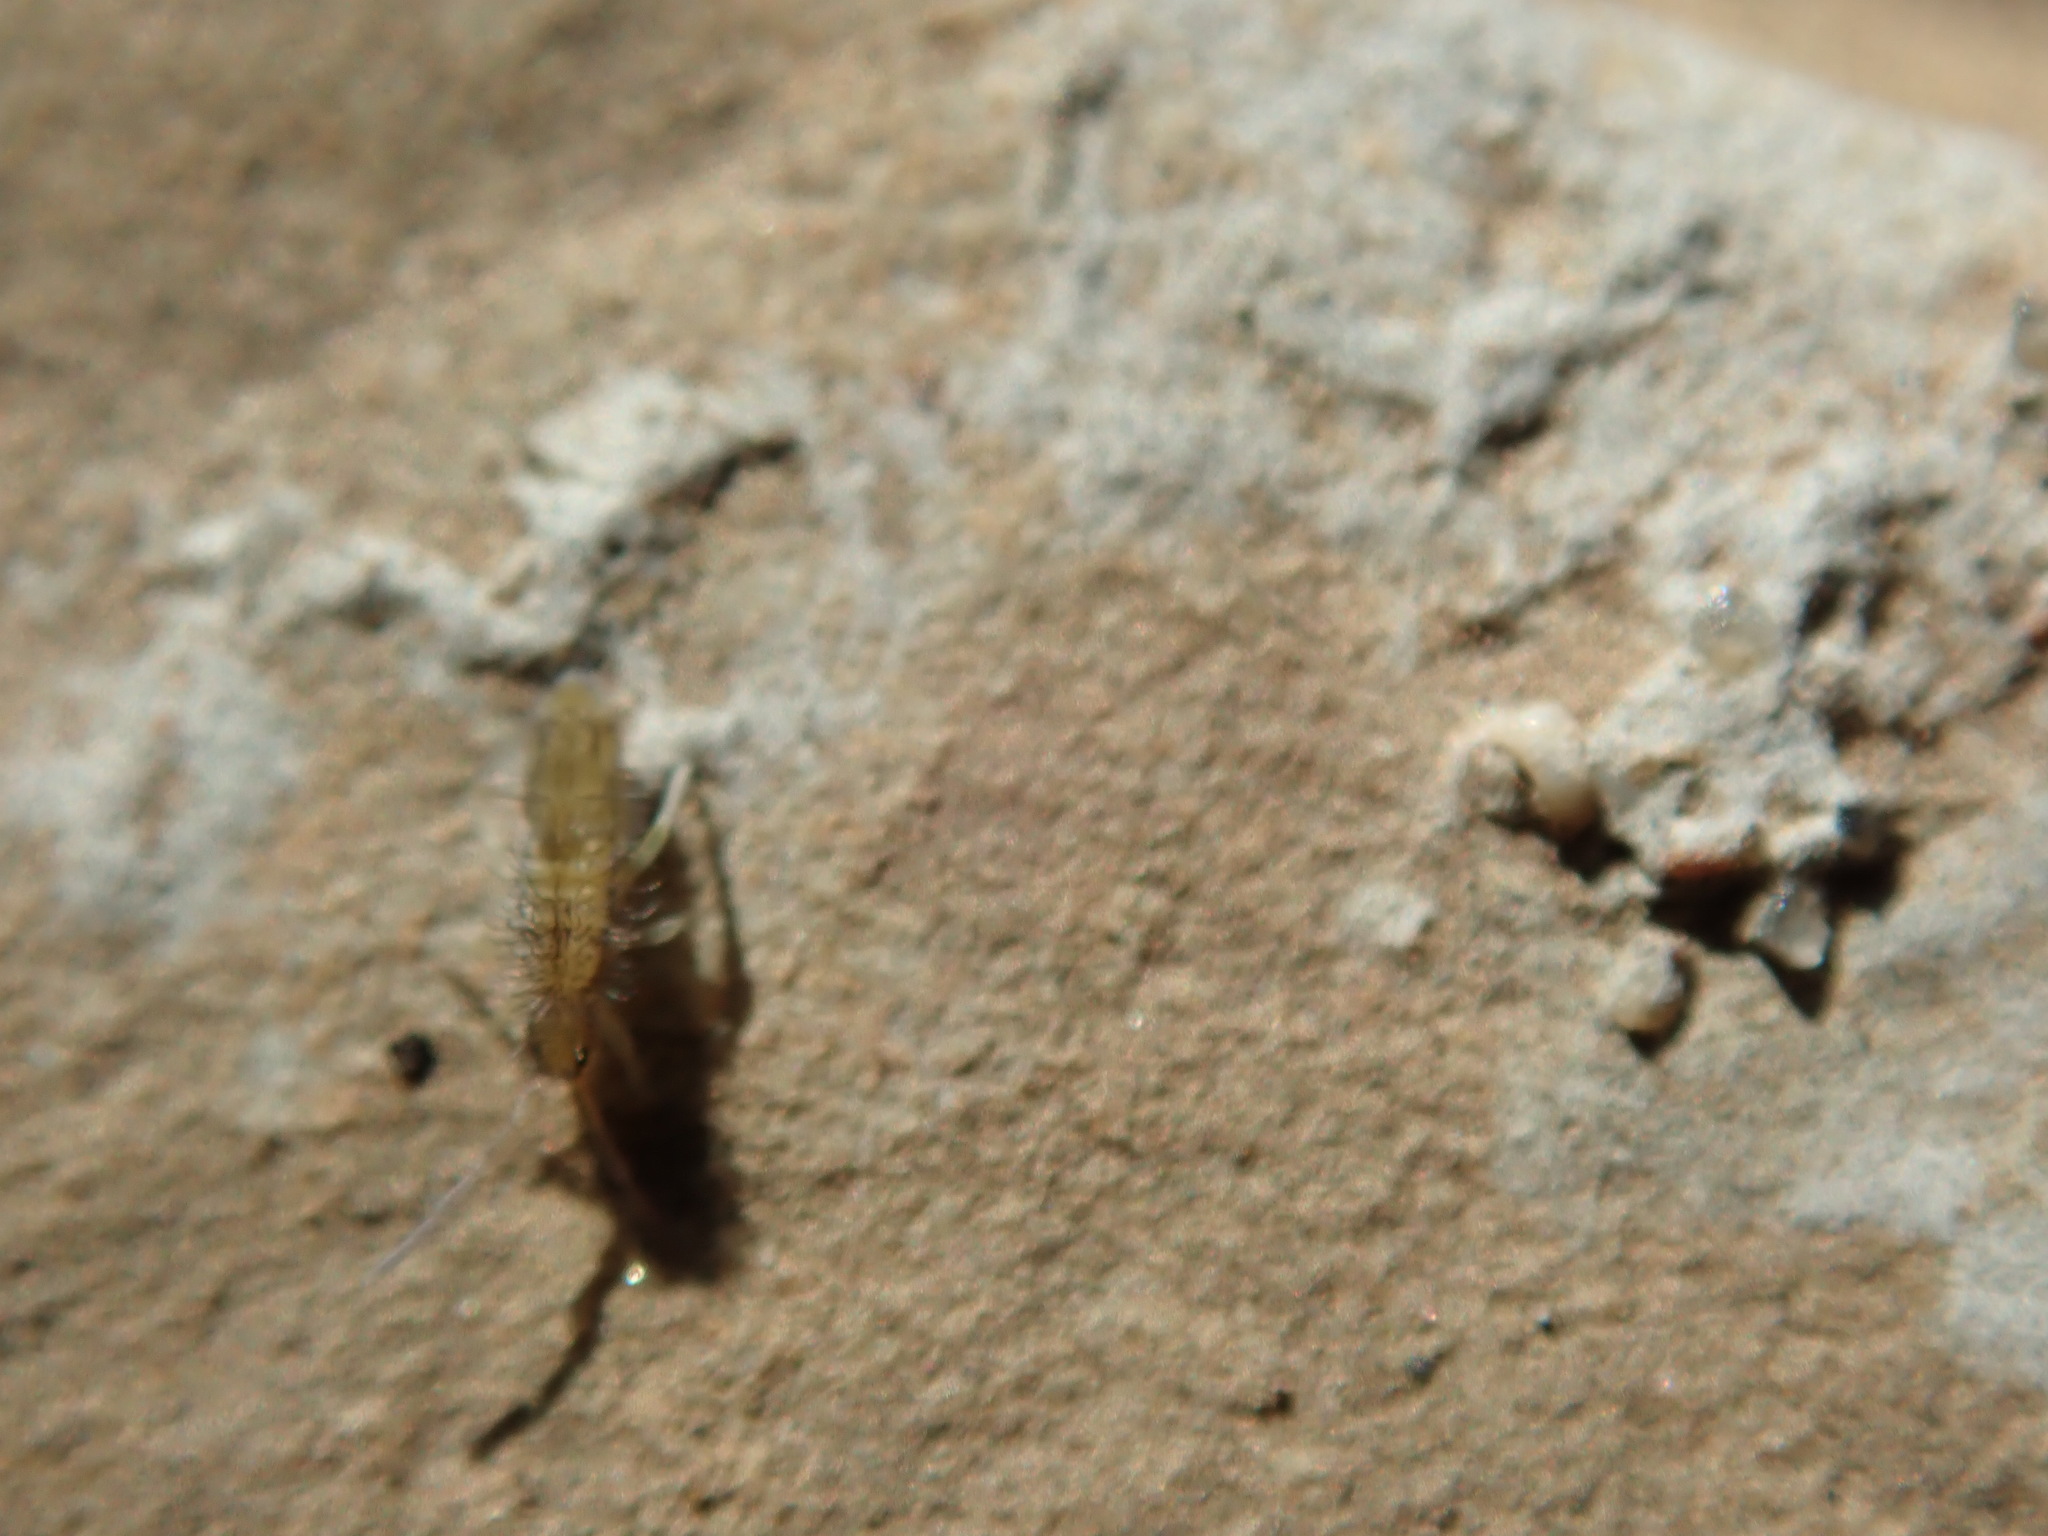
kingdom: Animalia
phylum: Arthropoda
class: Collembola
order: Entomobryomorpha
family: Entomobryidae
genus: Homidia
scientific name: Homidia socia
